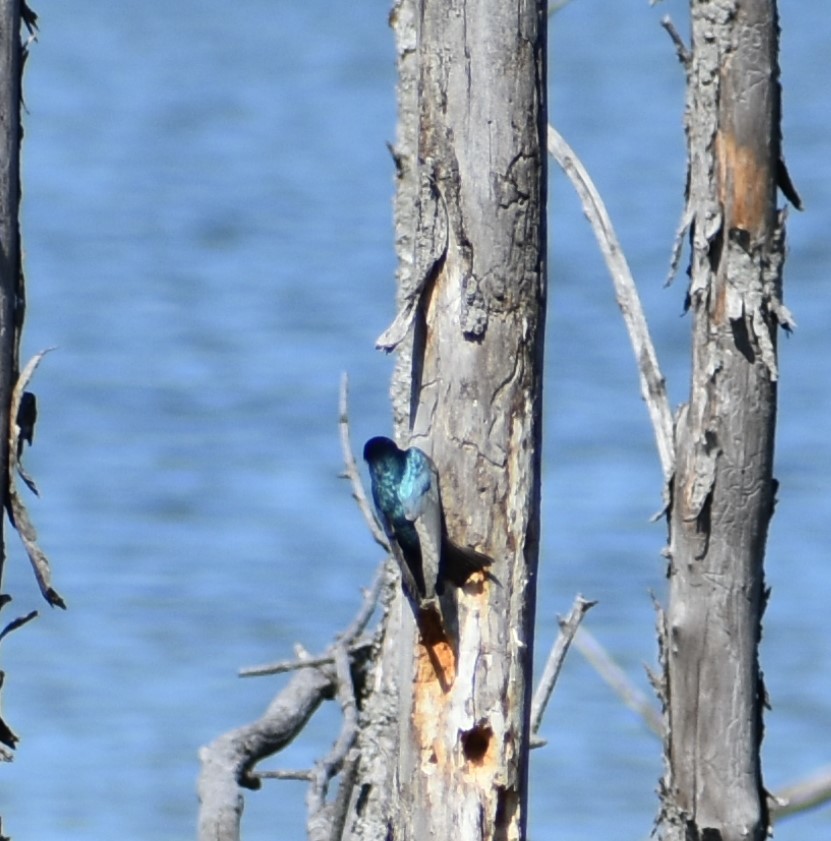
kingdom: Animalia
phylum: Chordata
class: Aves
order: Passeriformes
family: Hirundinidae
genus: Tachycineta
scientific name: Tachycineta bicolor
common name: Tree swallow
